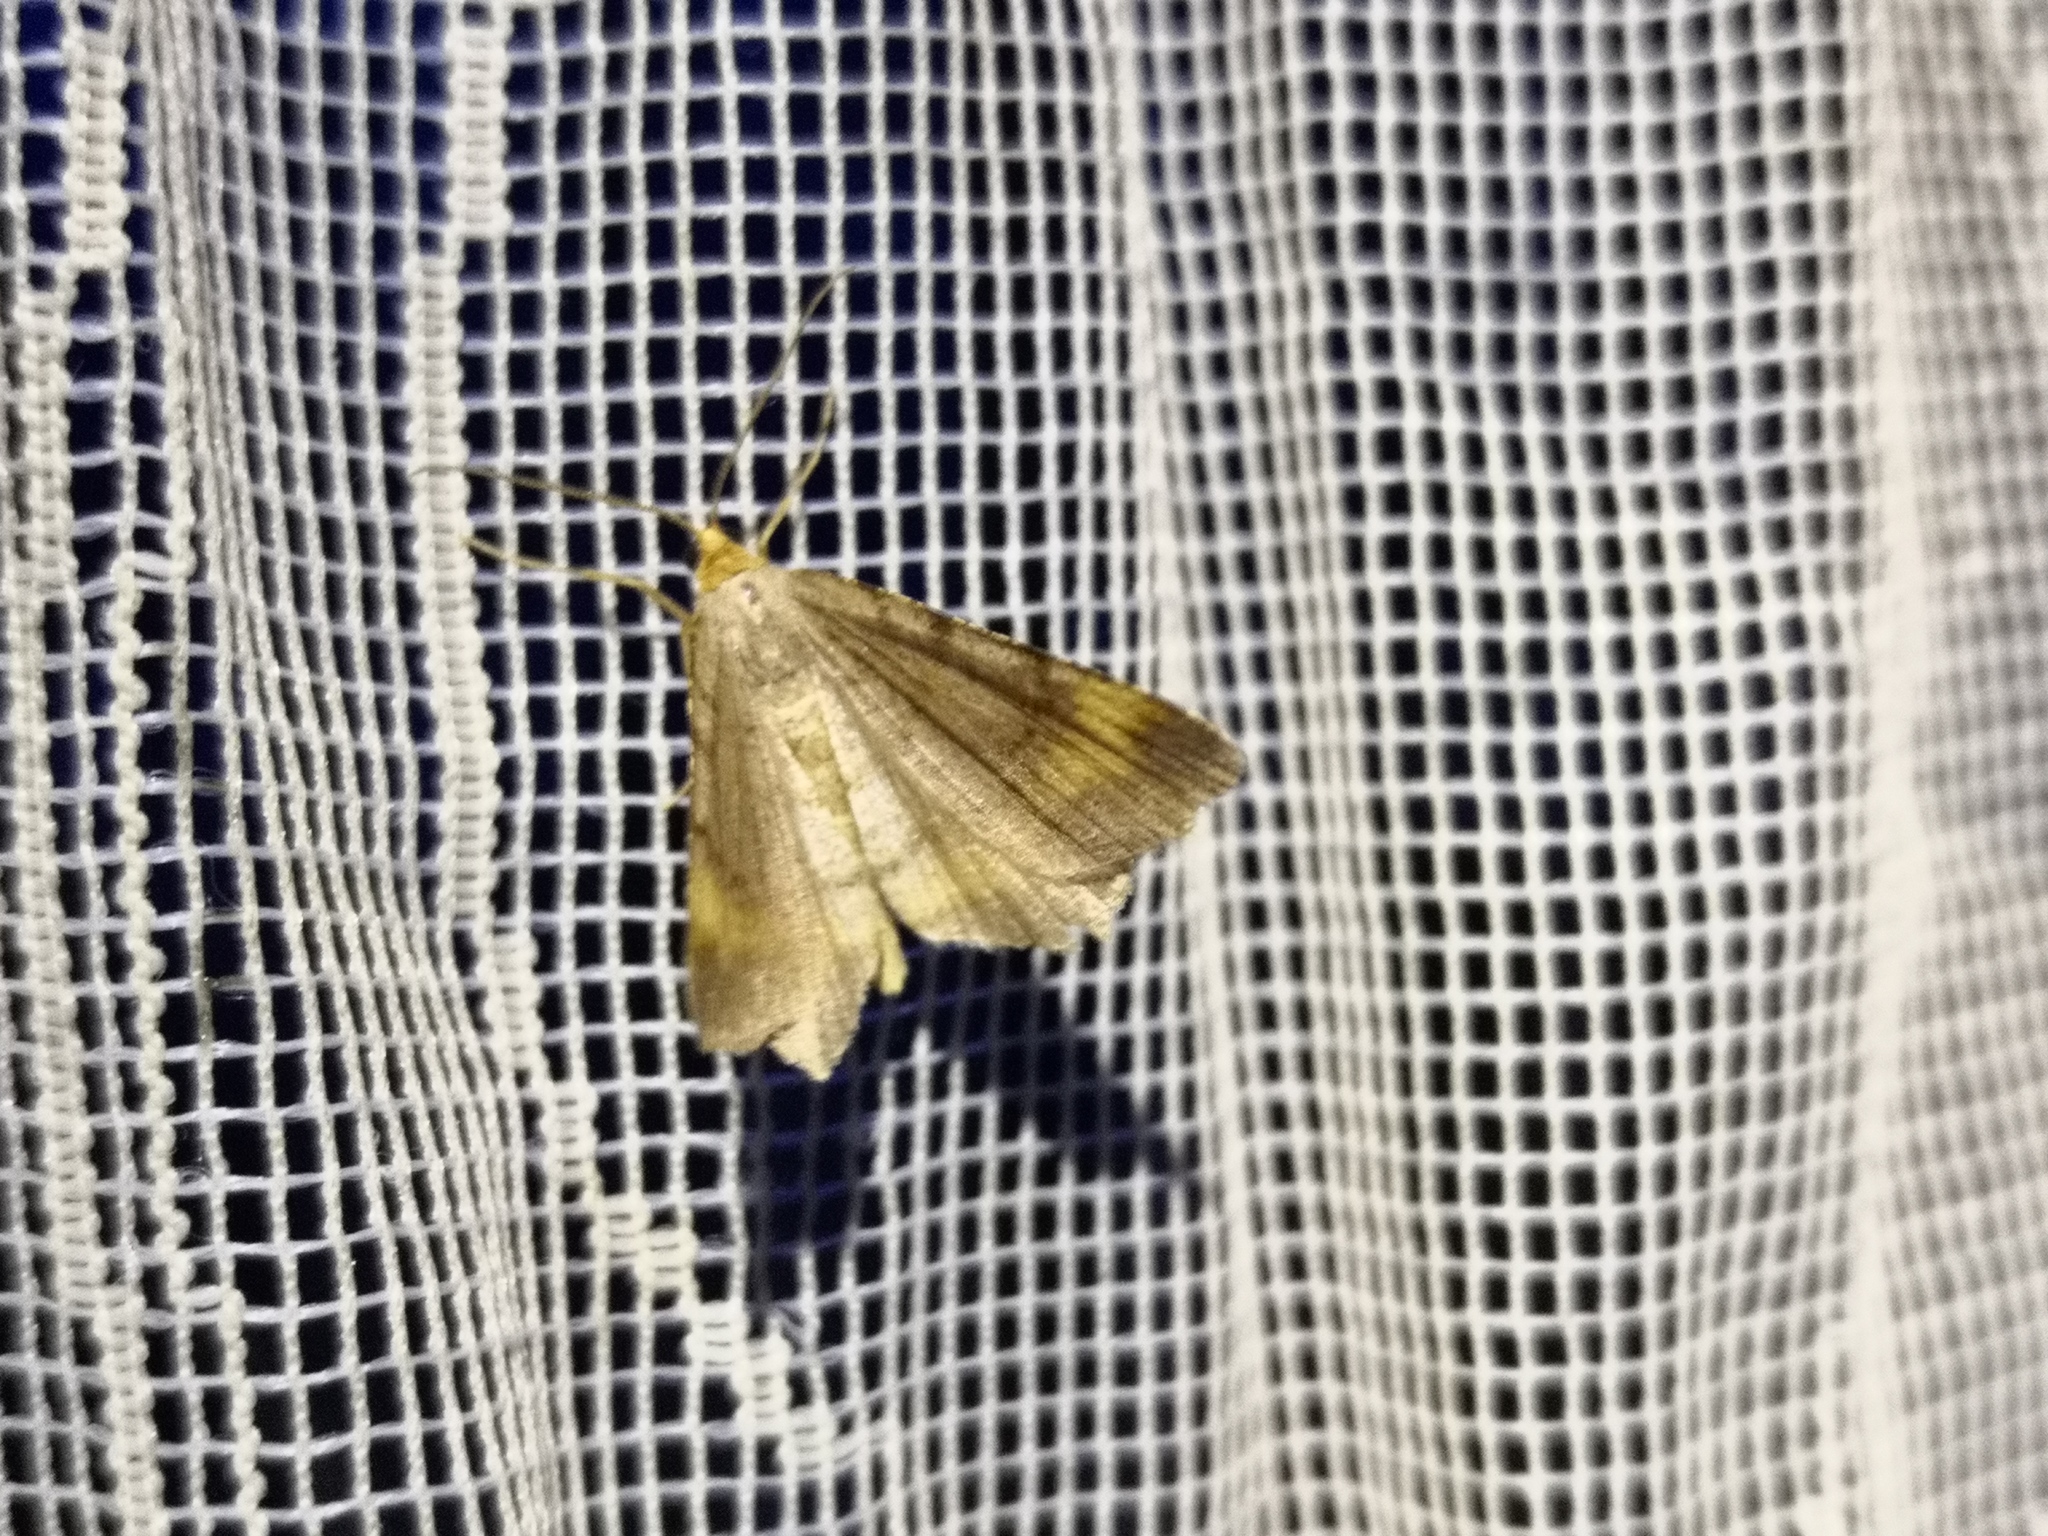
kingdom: Animalia
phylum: Arthropoda
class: Insecta
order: Lepidoptera
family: Geometridae
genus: Macaria
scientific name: Macaria liturata
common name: Tawny-barred angle
